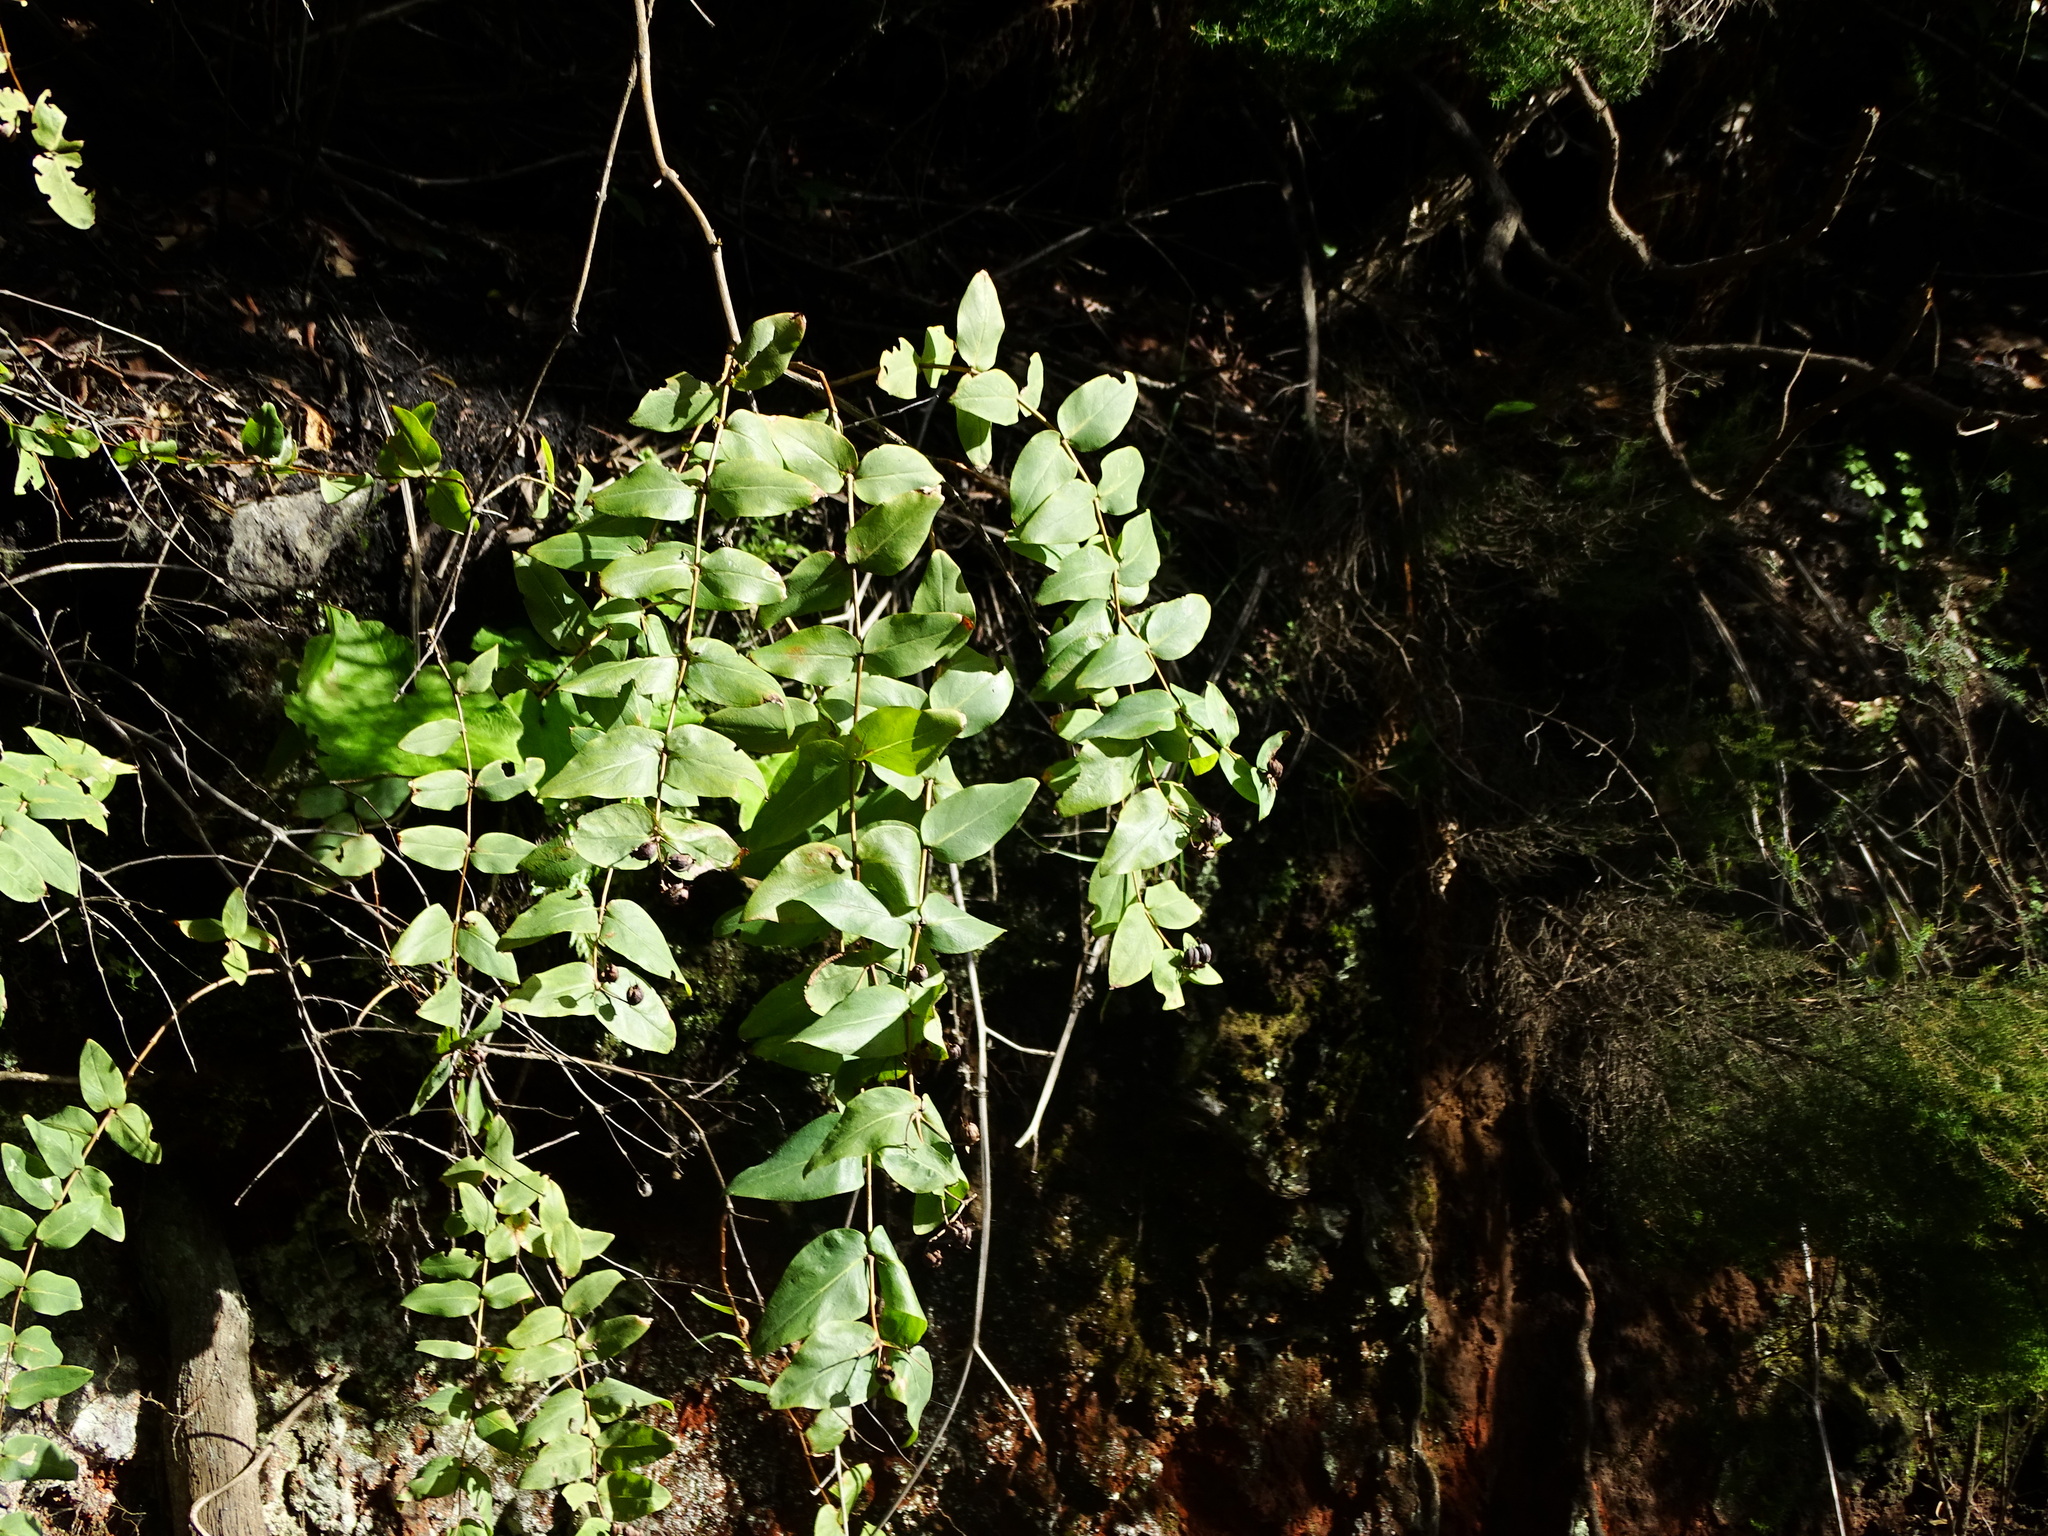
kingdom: Plantae
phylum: Tracheophyta
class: Magnoliopsida
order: Malpighiales
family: Hypericaceae
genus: Hypericum
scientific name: Hypericum grandifolium
